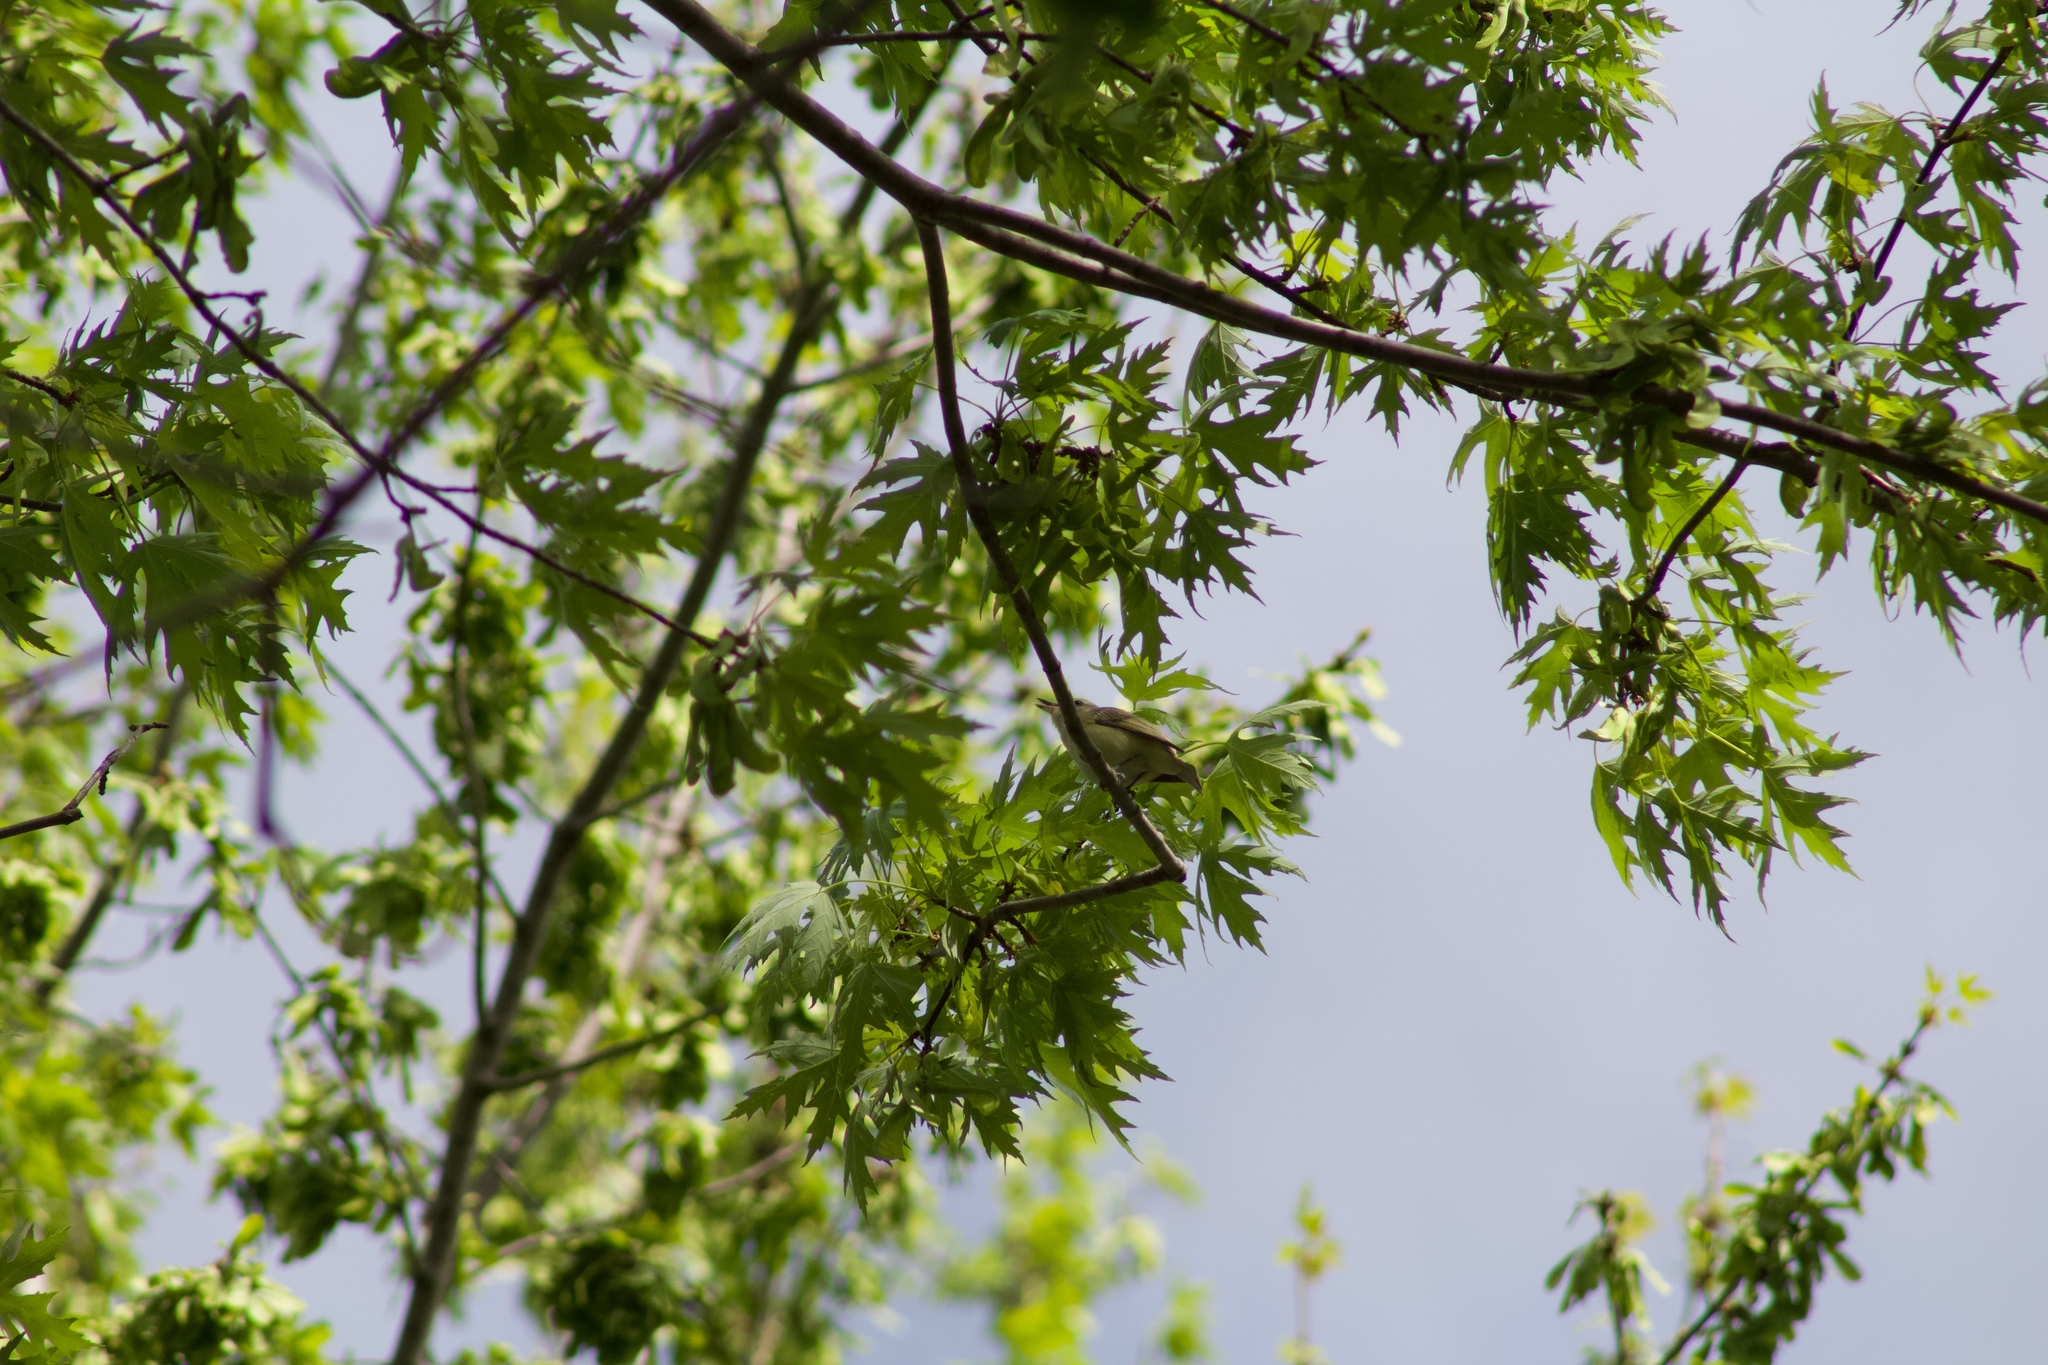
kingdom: Animalia
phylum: Chordata
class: Aves
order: Passeriformes
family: Vireonidae
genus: Vireo
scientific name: Vireo gilvus
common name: Warbling vireo
